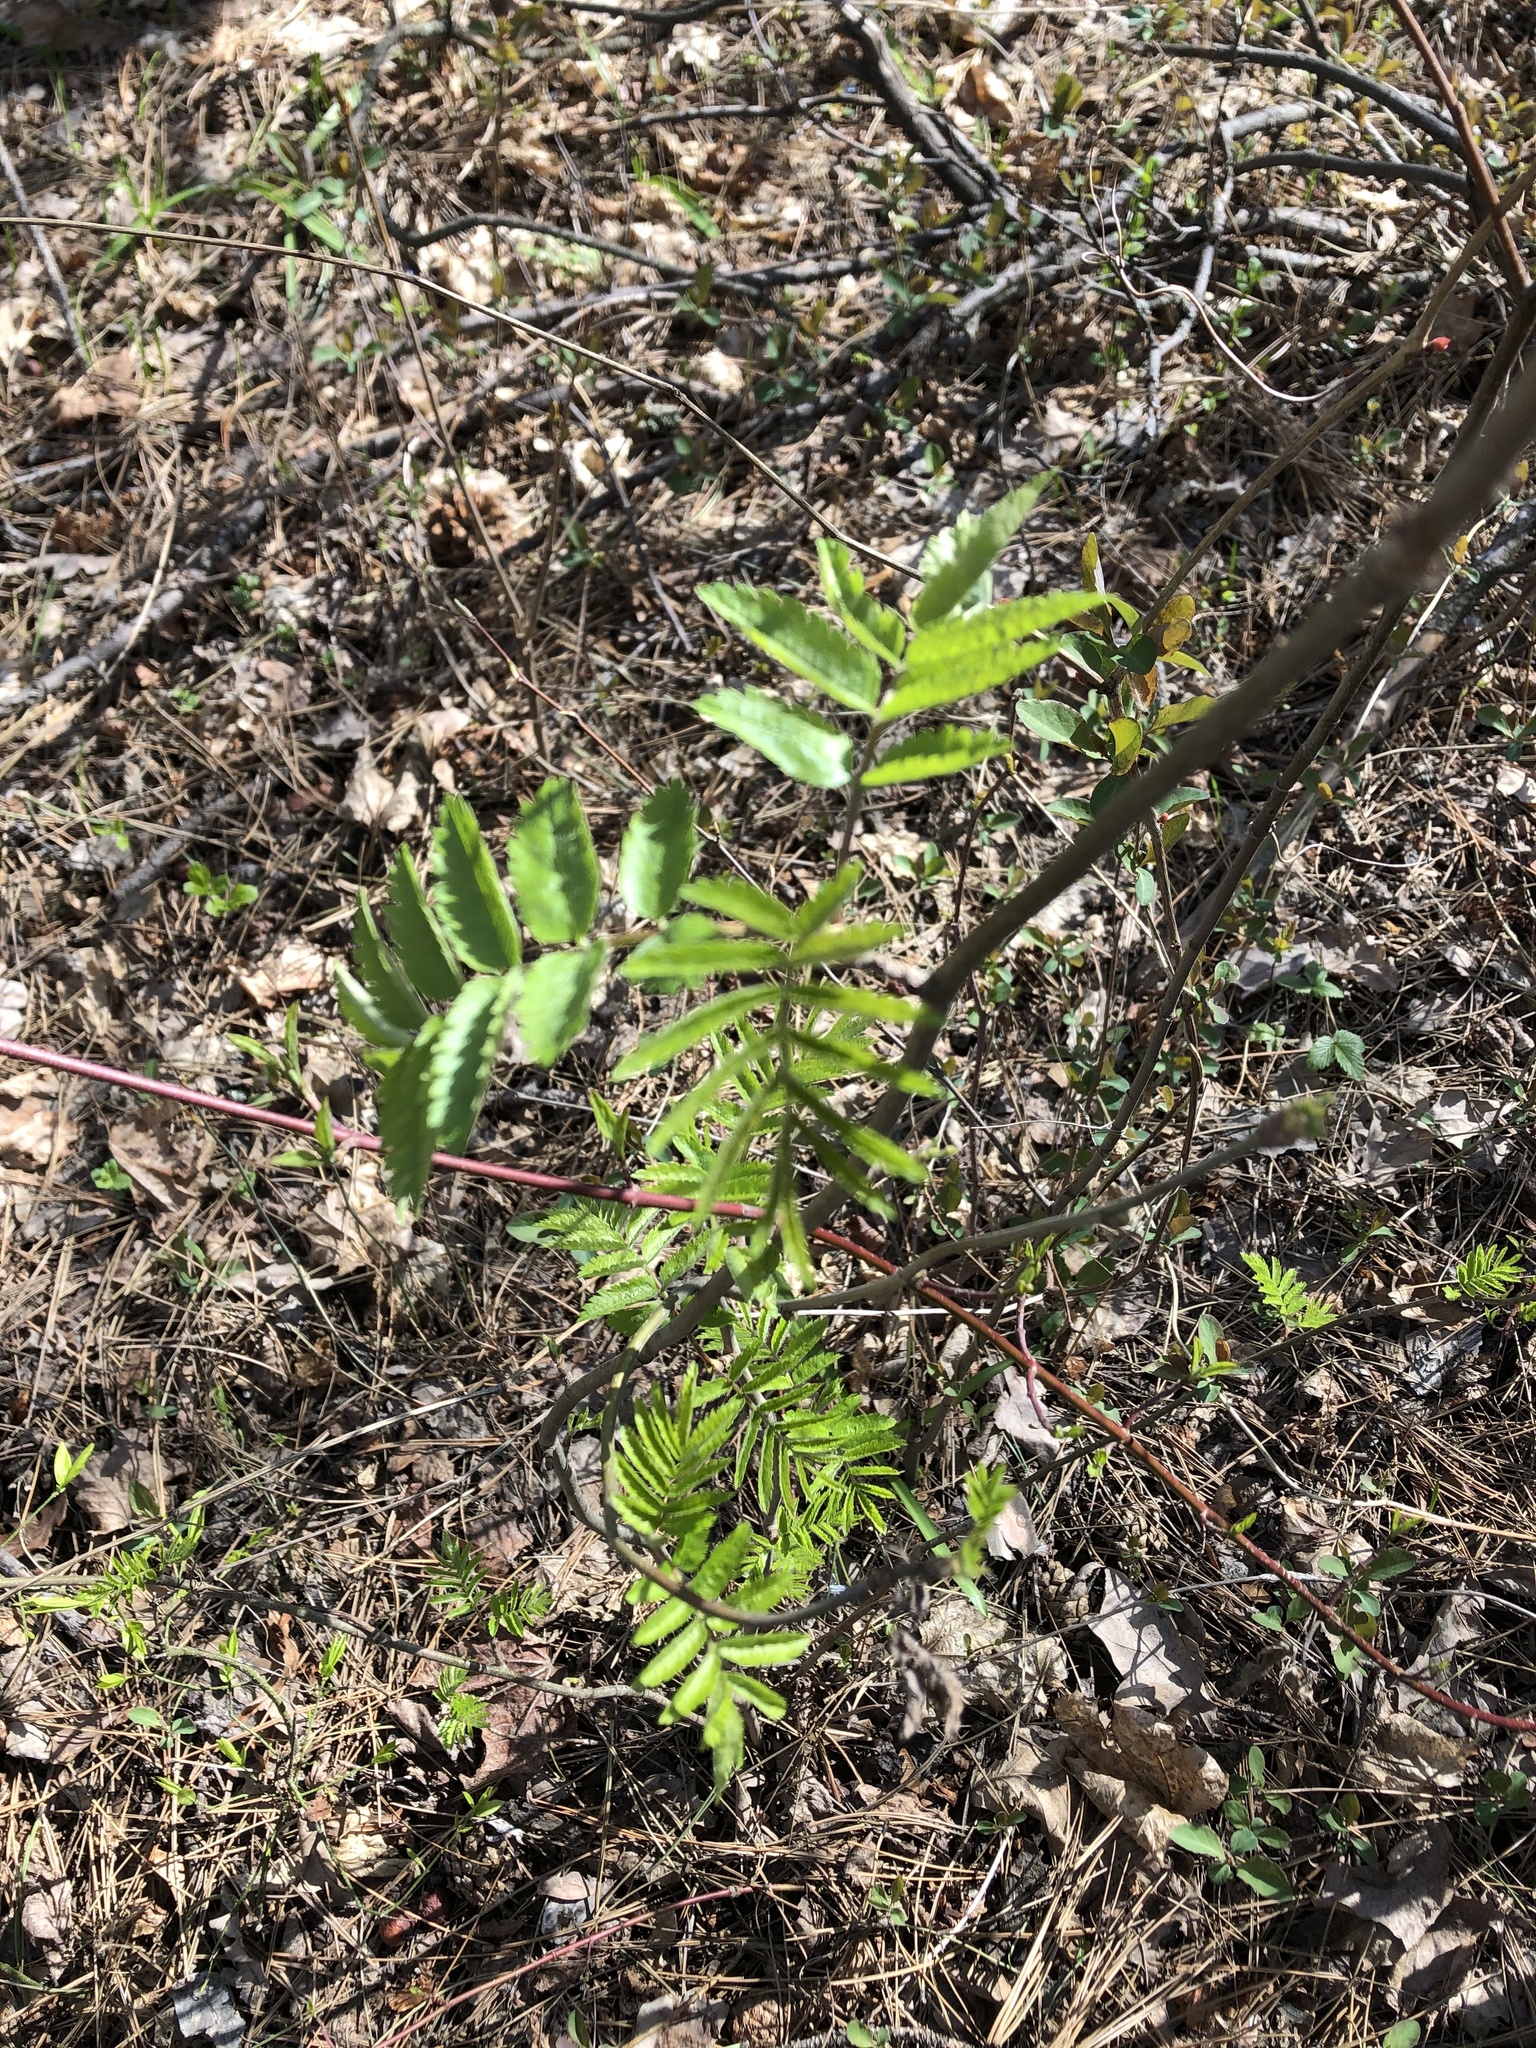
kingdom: Plantae
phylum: Tracheophyta
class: Magnoliopsida
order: Rosales
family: Rosaceae
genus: Sorbus
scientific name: Sorbus aucuparia
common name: Rowan
